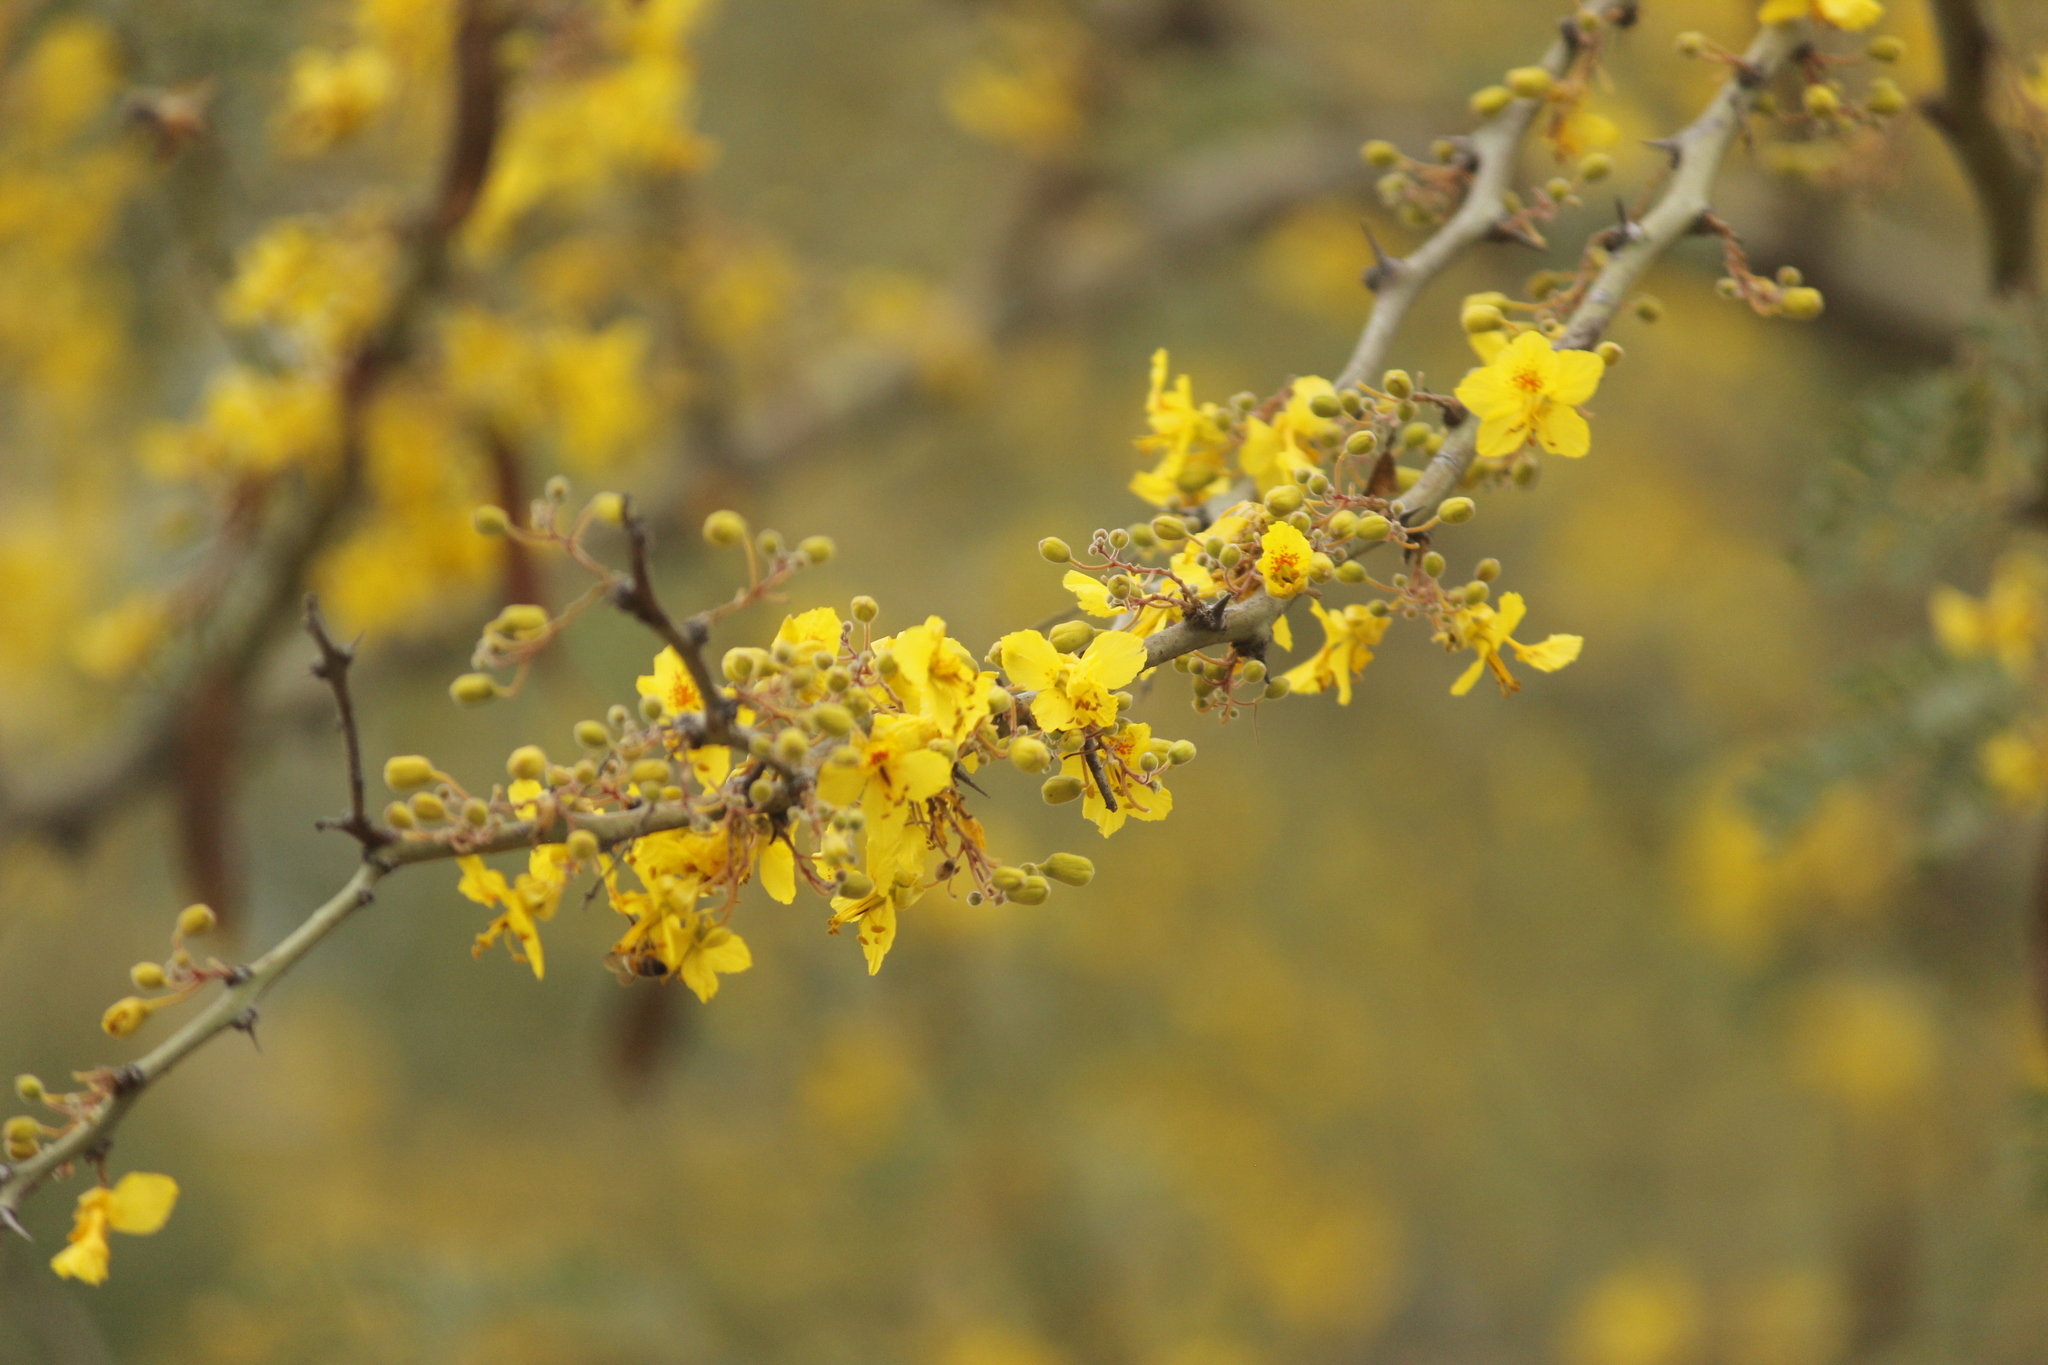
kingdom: Plantae
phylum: Tracheophyta
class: Magnoliopsida
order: Fabales
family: Fabaceae
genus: Parkinsonia
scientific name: Parkinsonia praecox
